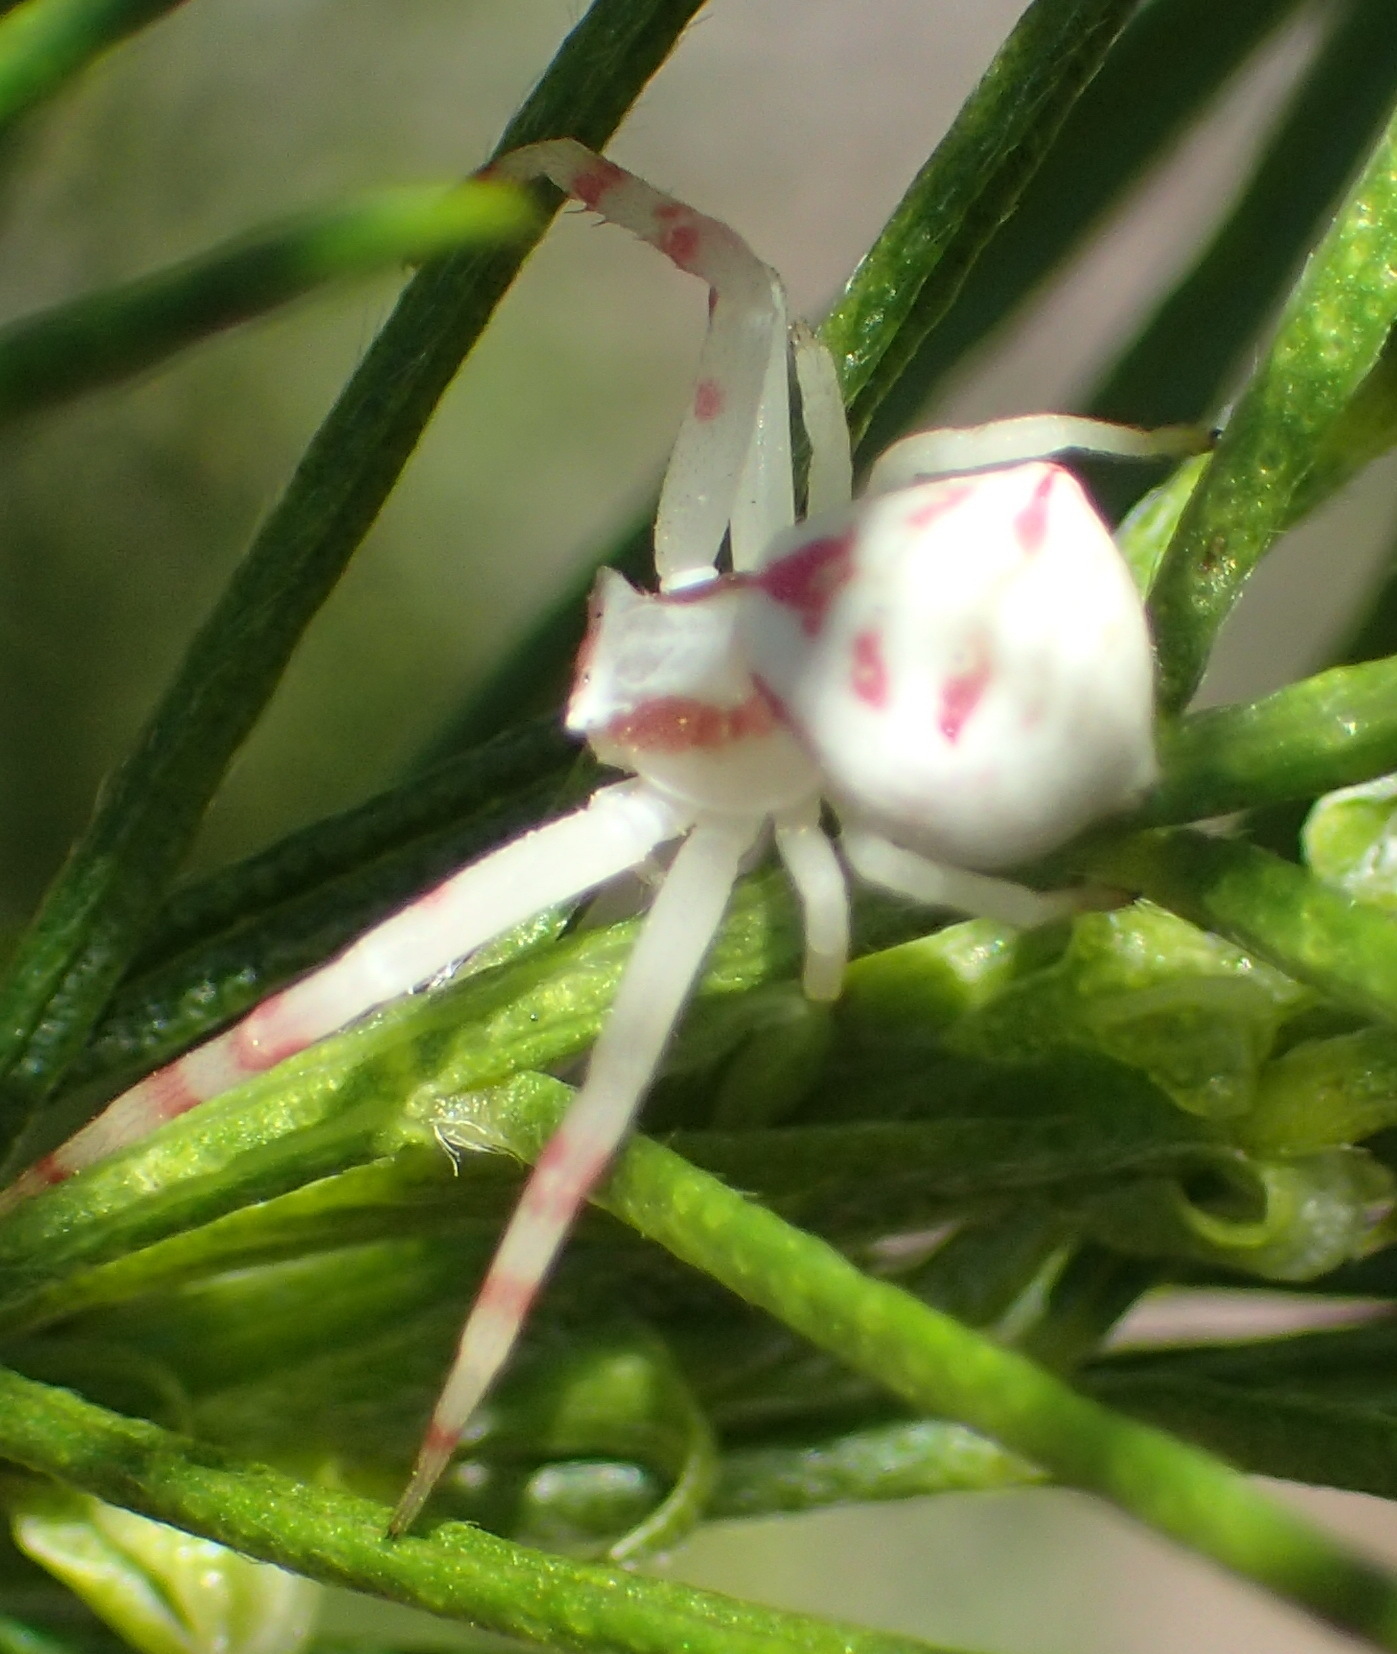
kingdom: Animalia
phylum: Arthropoda
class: Arachnida
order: Araneae
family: Thomisidae
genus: Thomisus
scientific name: Thomisus citrinellus
